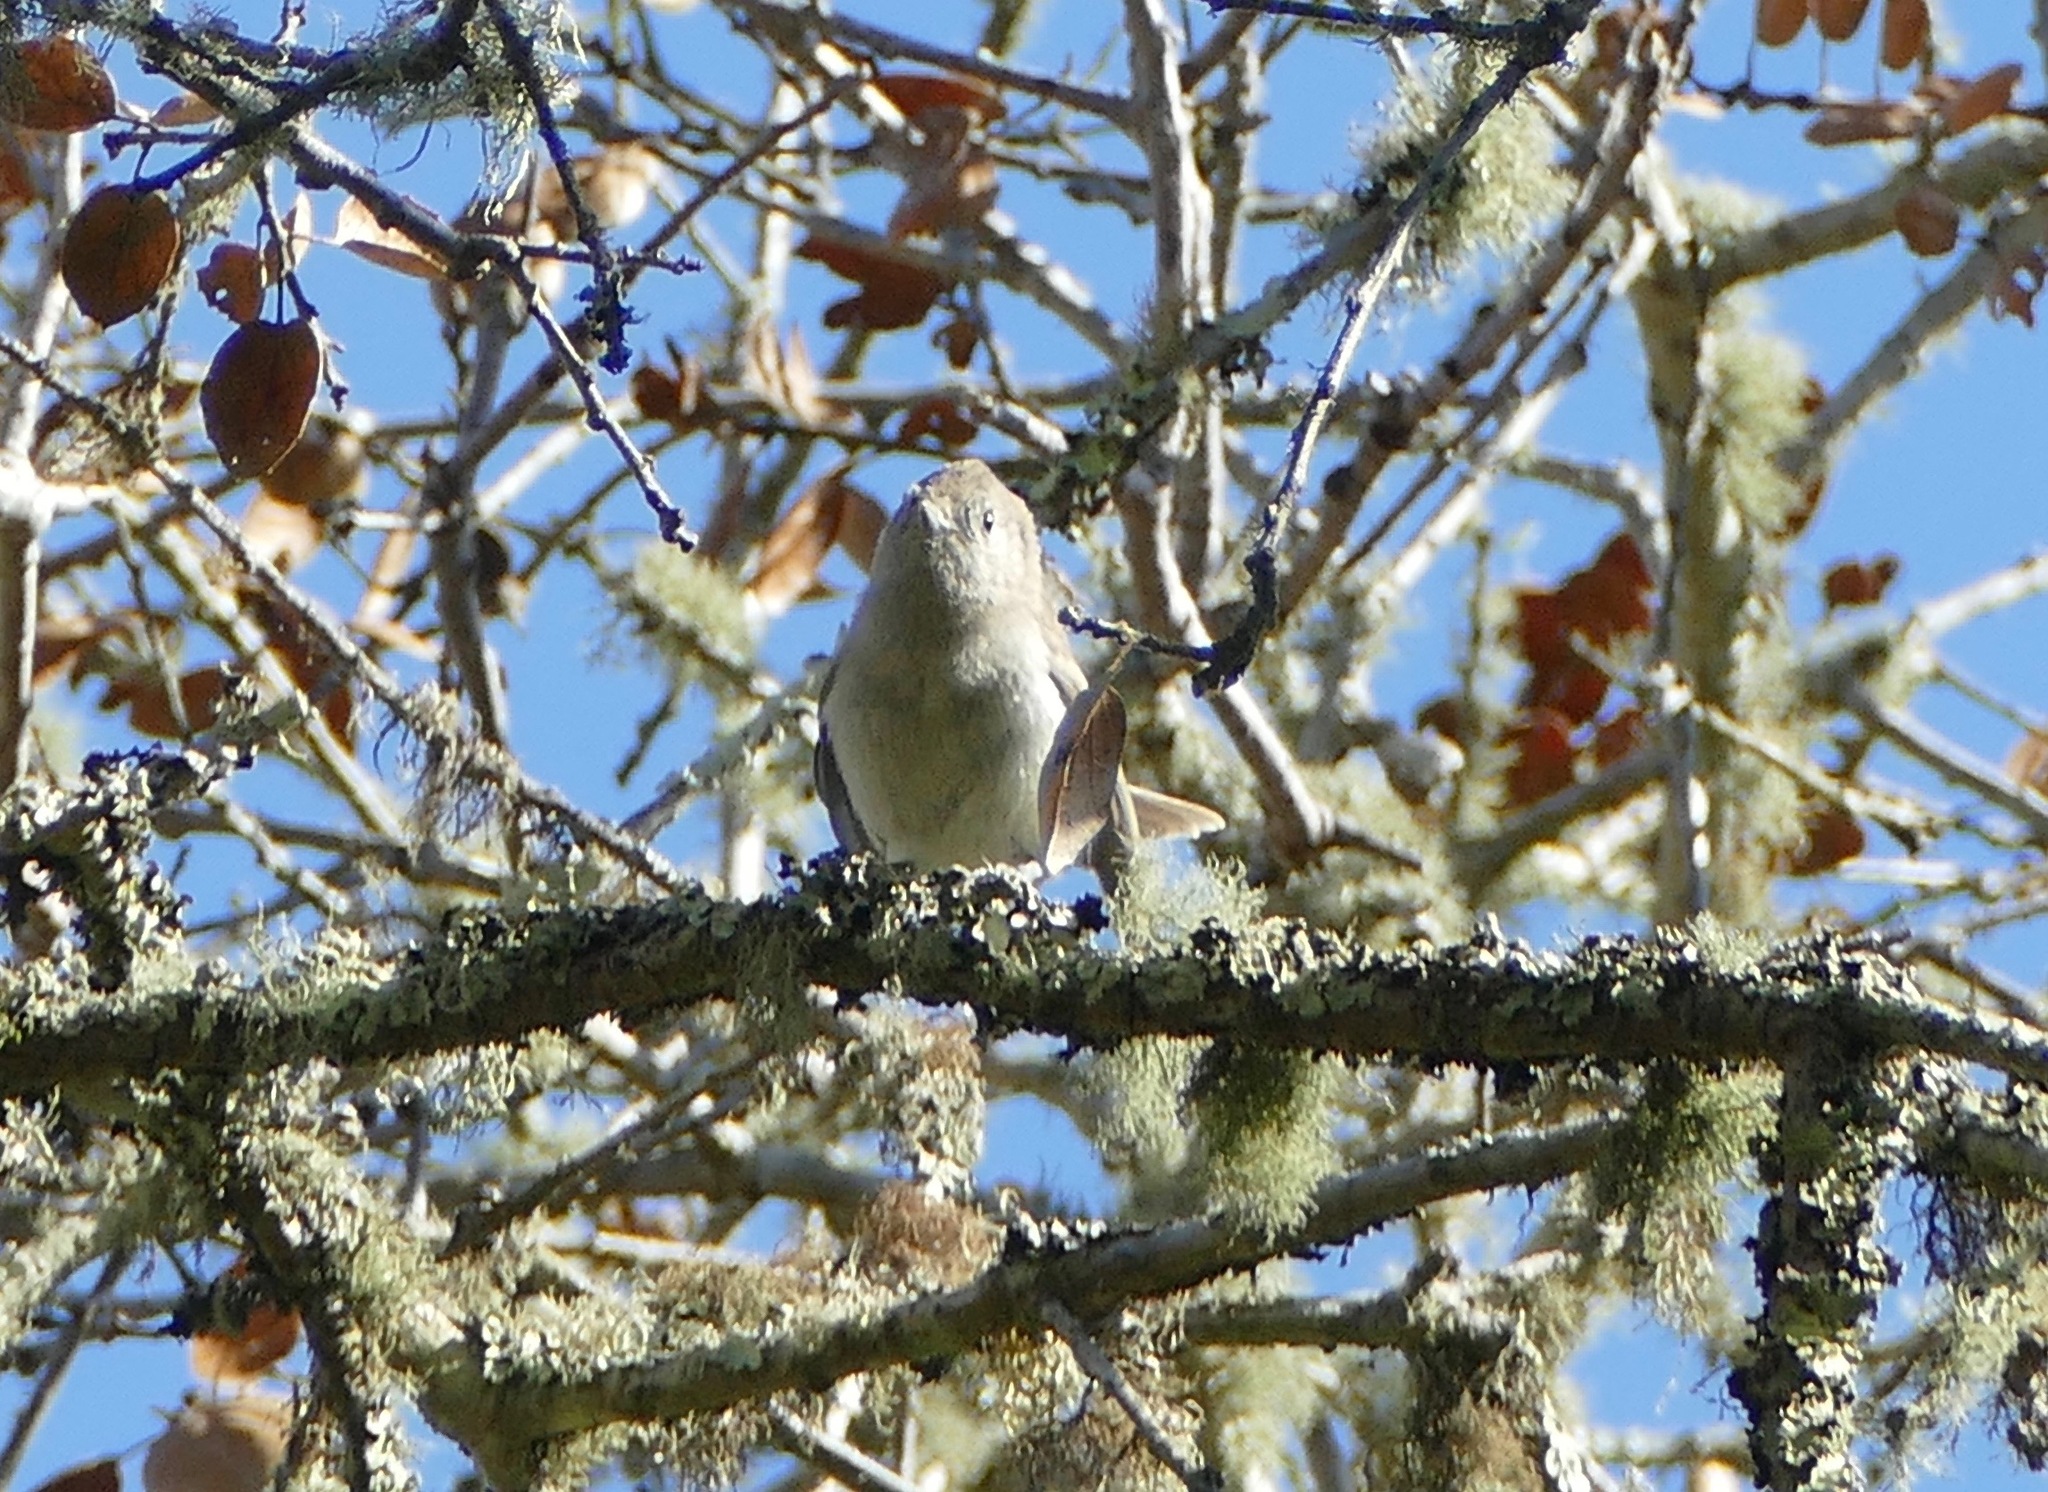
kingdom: Animalia
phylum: Chordata
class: Aves
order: Passeriformes
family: Paridae
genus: Baeolophus
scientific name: Baeolophus inornatus
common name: Oak titmouse
